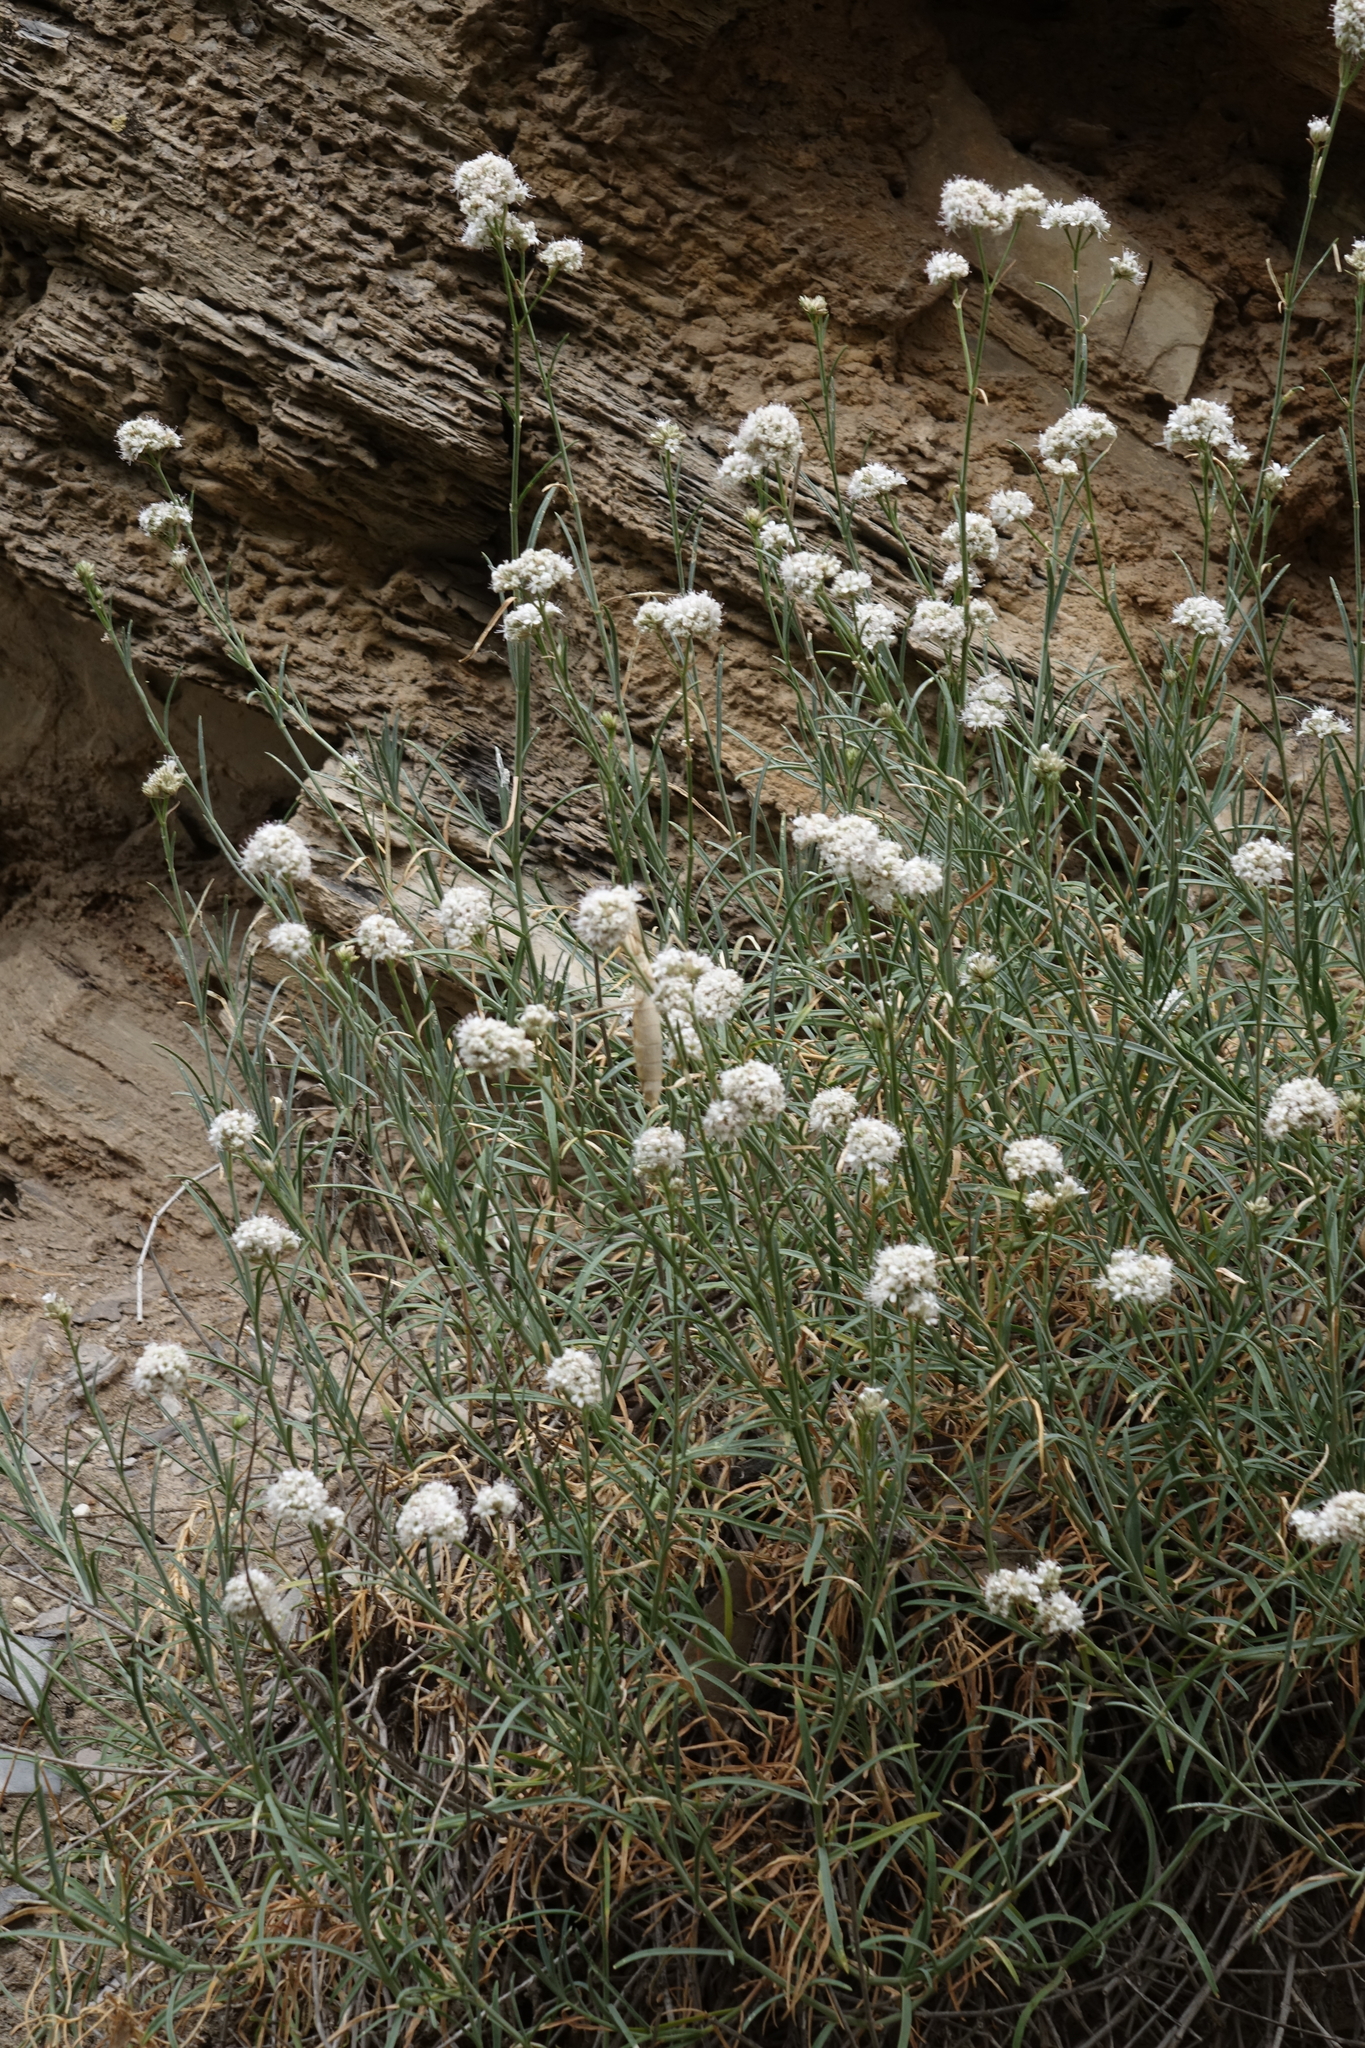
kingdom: Plantae
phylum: Tracheophyta
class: Magnoliopsida
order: Caryophyllales
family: Caryophyllaceae
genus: Gypsophila
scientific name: Gypsophila capitata
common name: Capitate chalk plant
